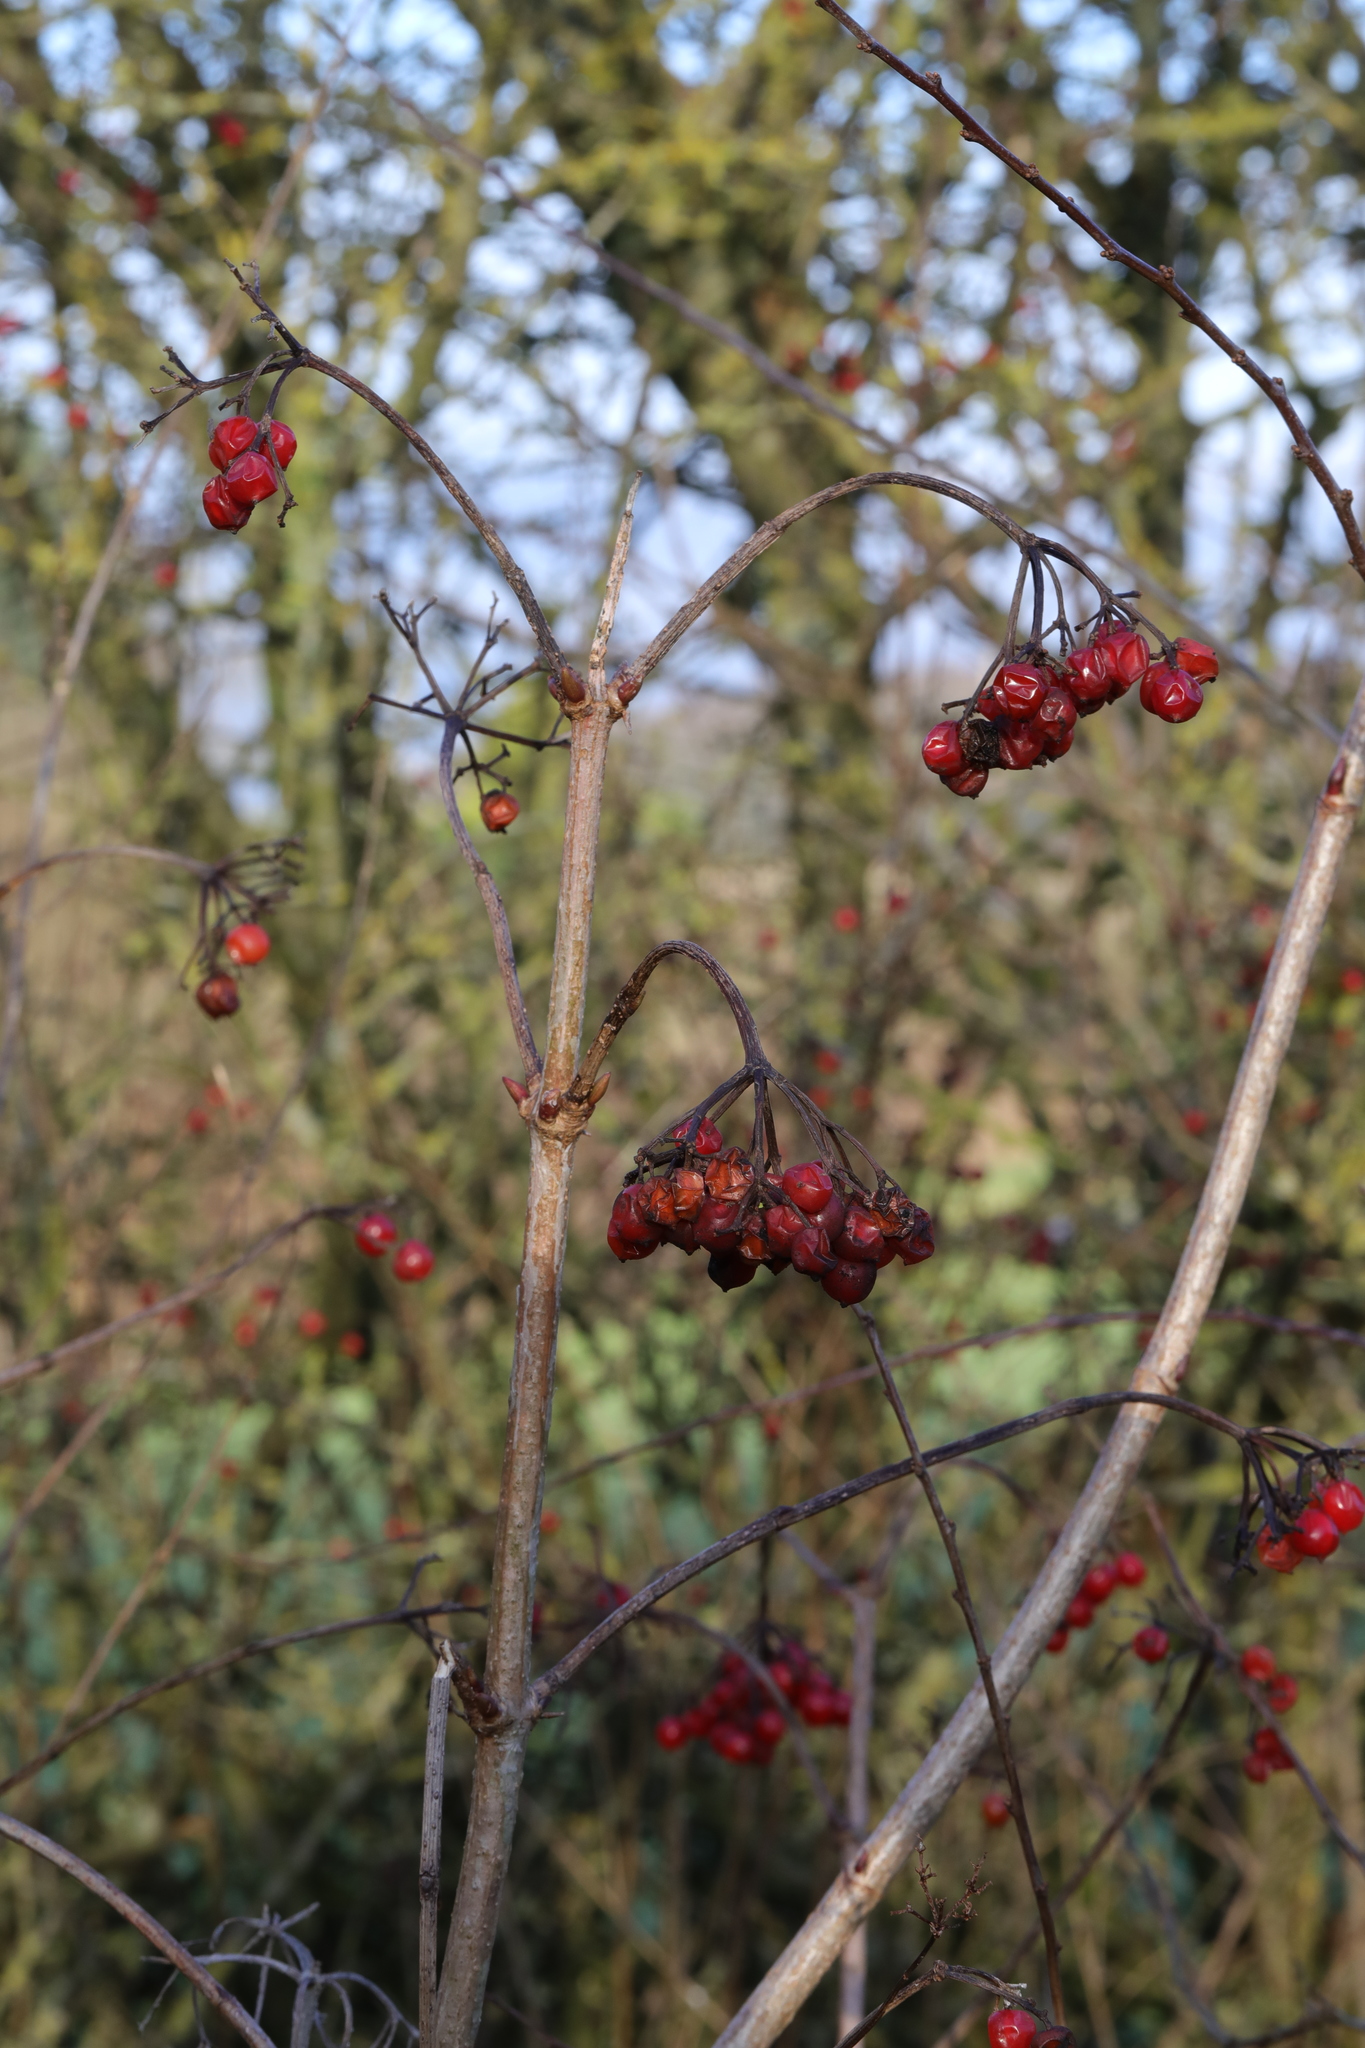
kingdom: Plantae
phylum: Tracheophyta
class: Magnoliopsida
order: Dipsacales
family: Viburnaceae
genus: Viburnum
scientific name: Viburnum opulus
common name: Guelder-rose
